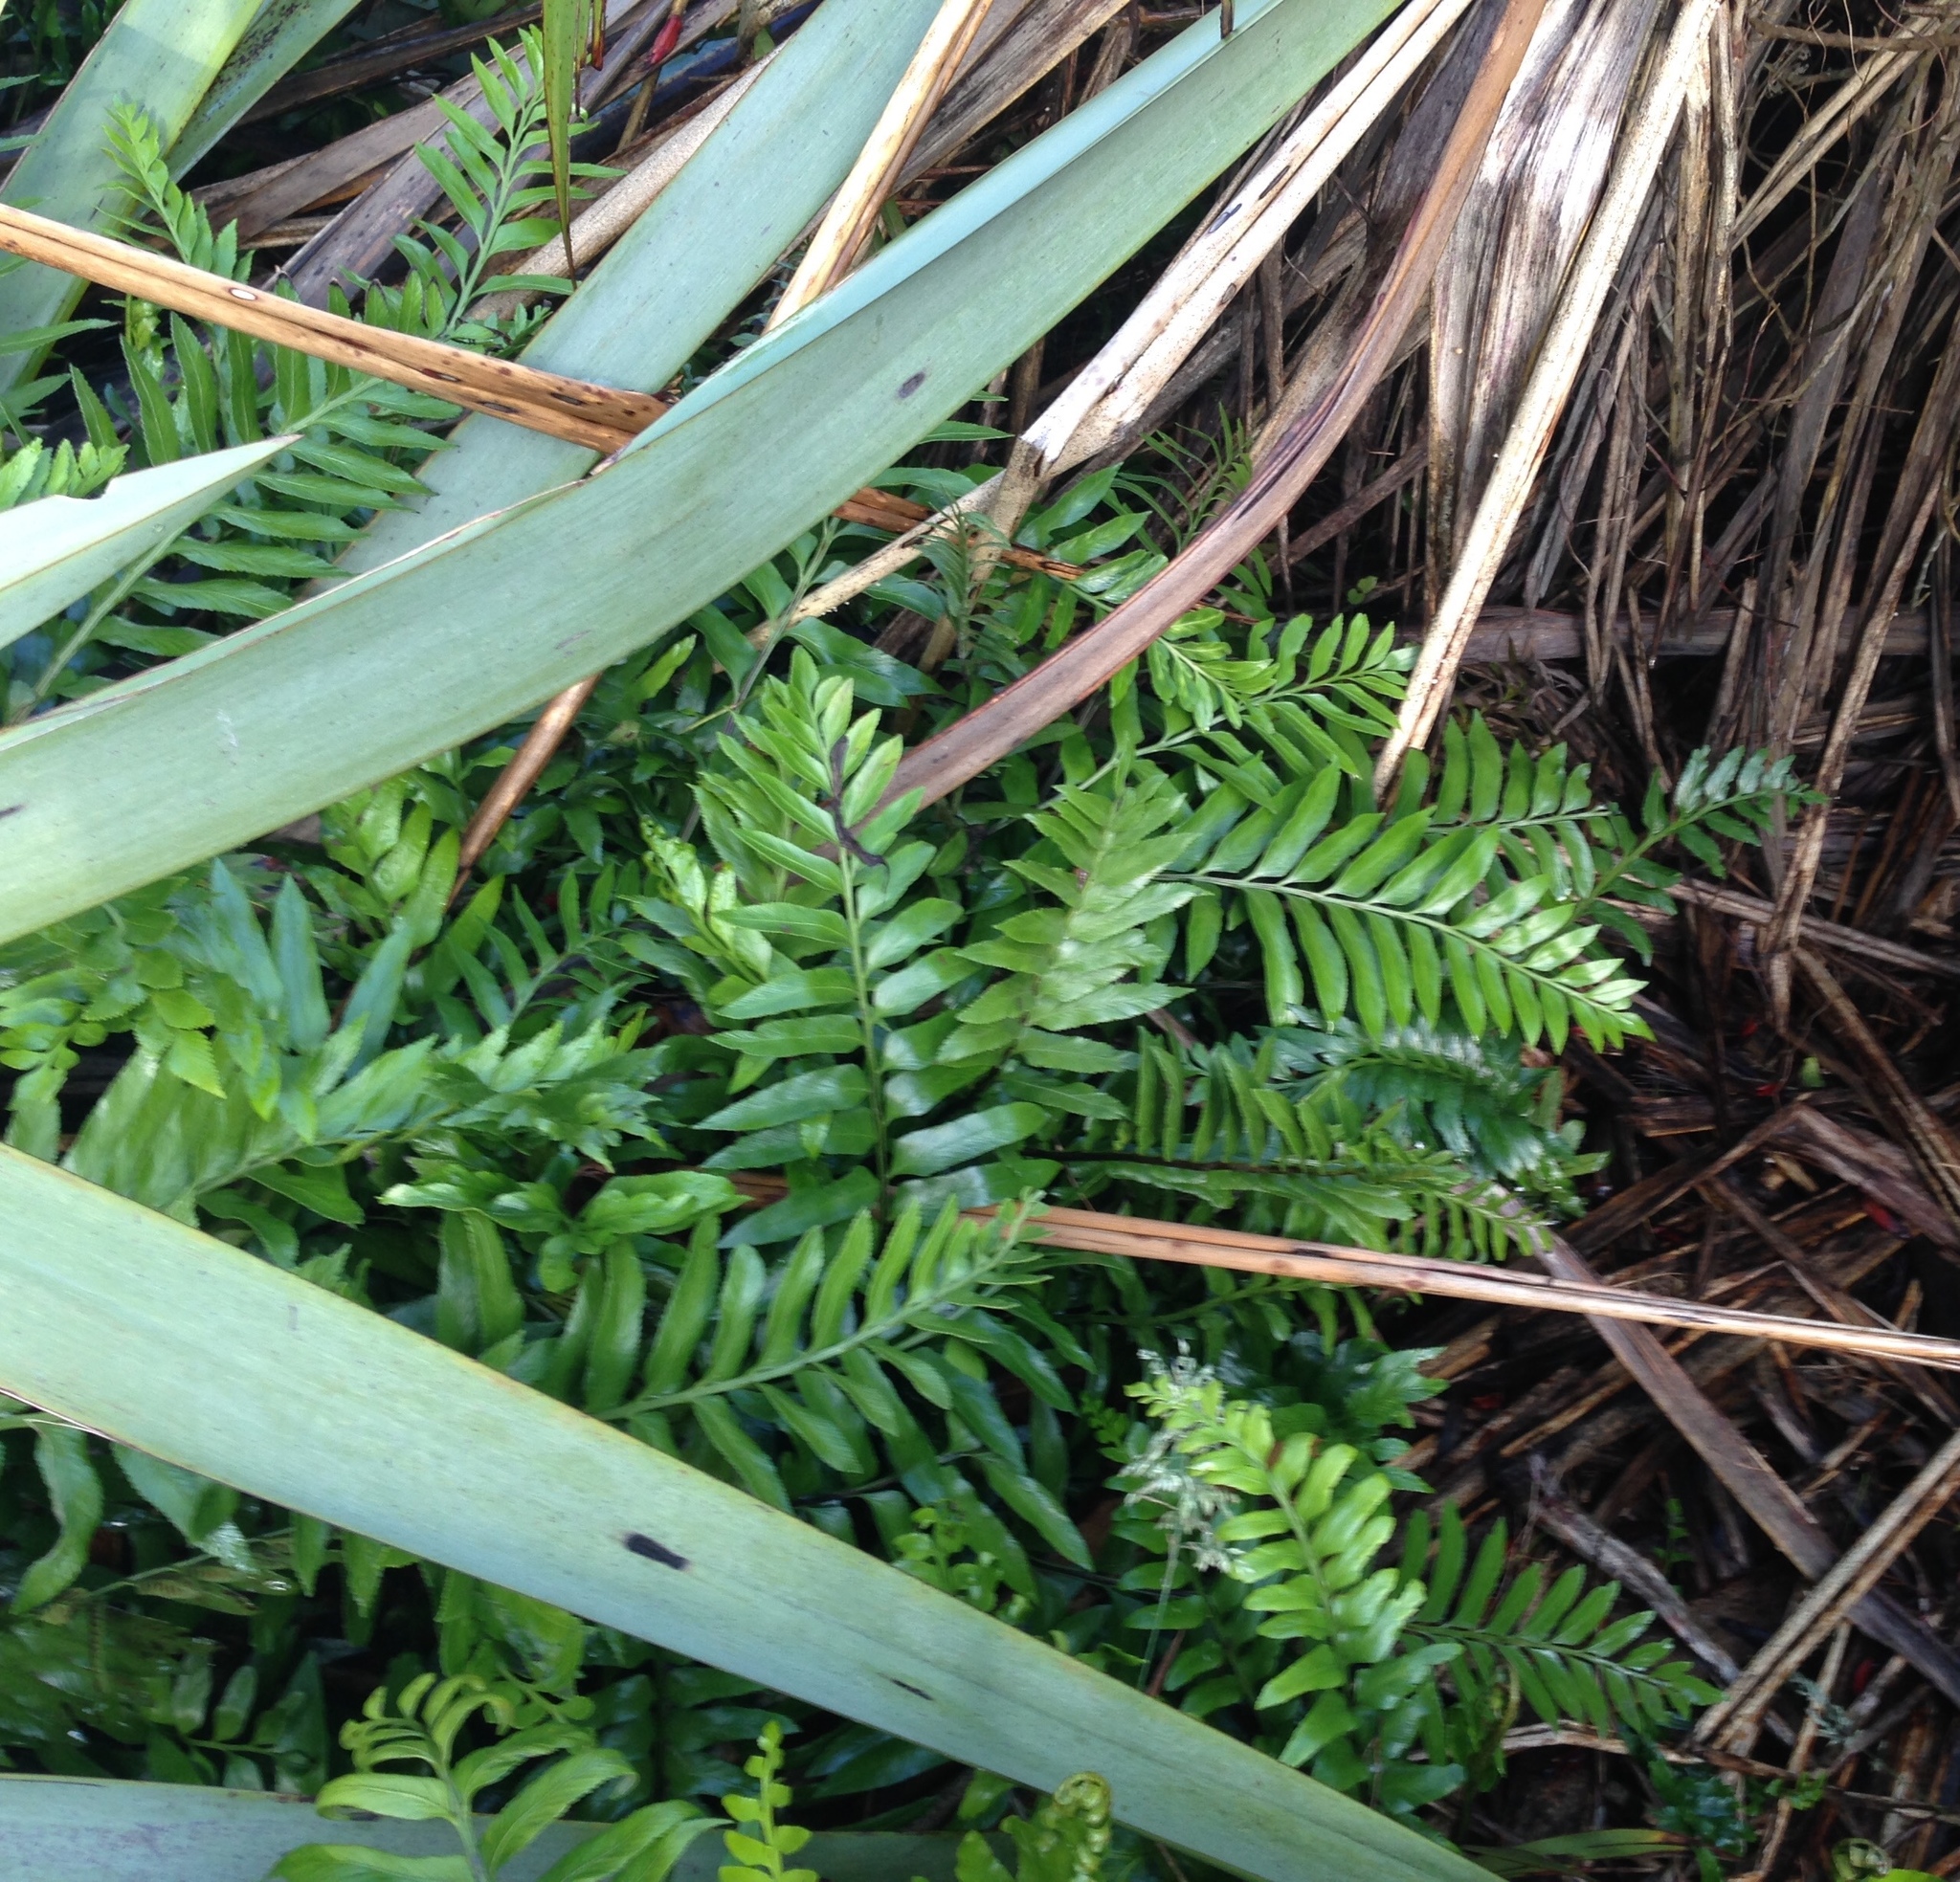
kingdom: Plantae
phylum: Tracheophyta
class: Polypodiopsida
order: Polypodiales
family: Aspleniaceae
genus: Asplenium
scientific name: Asplenium obtusatum
